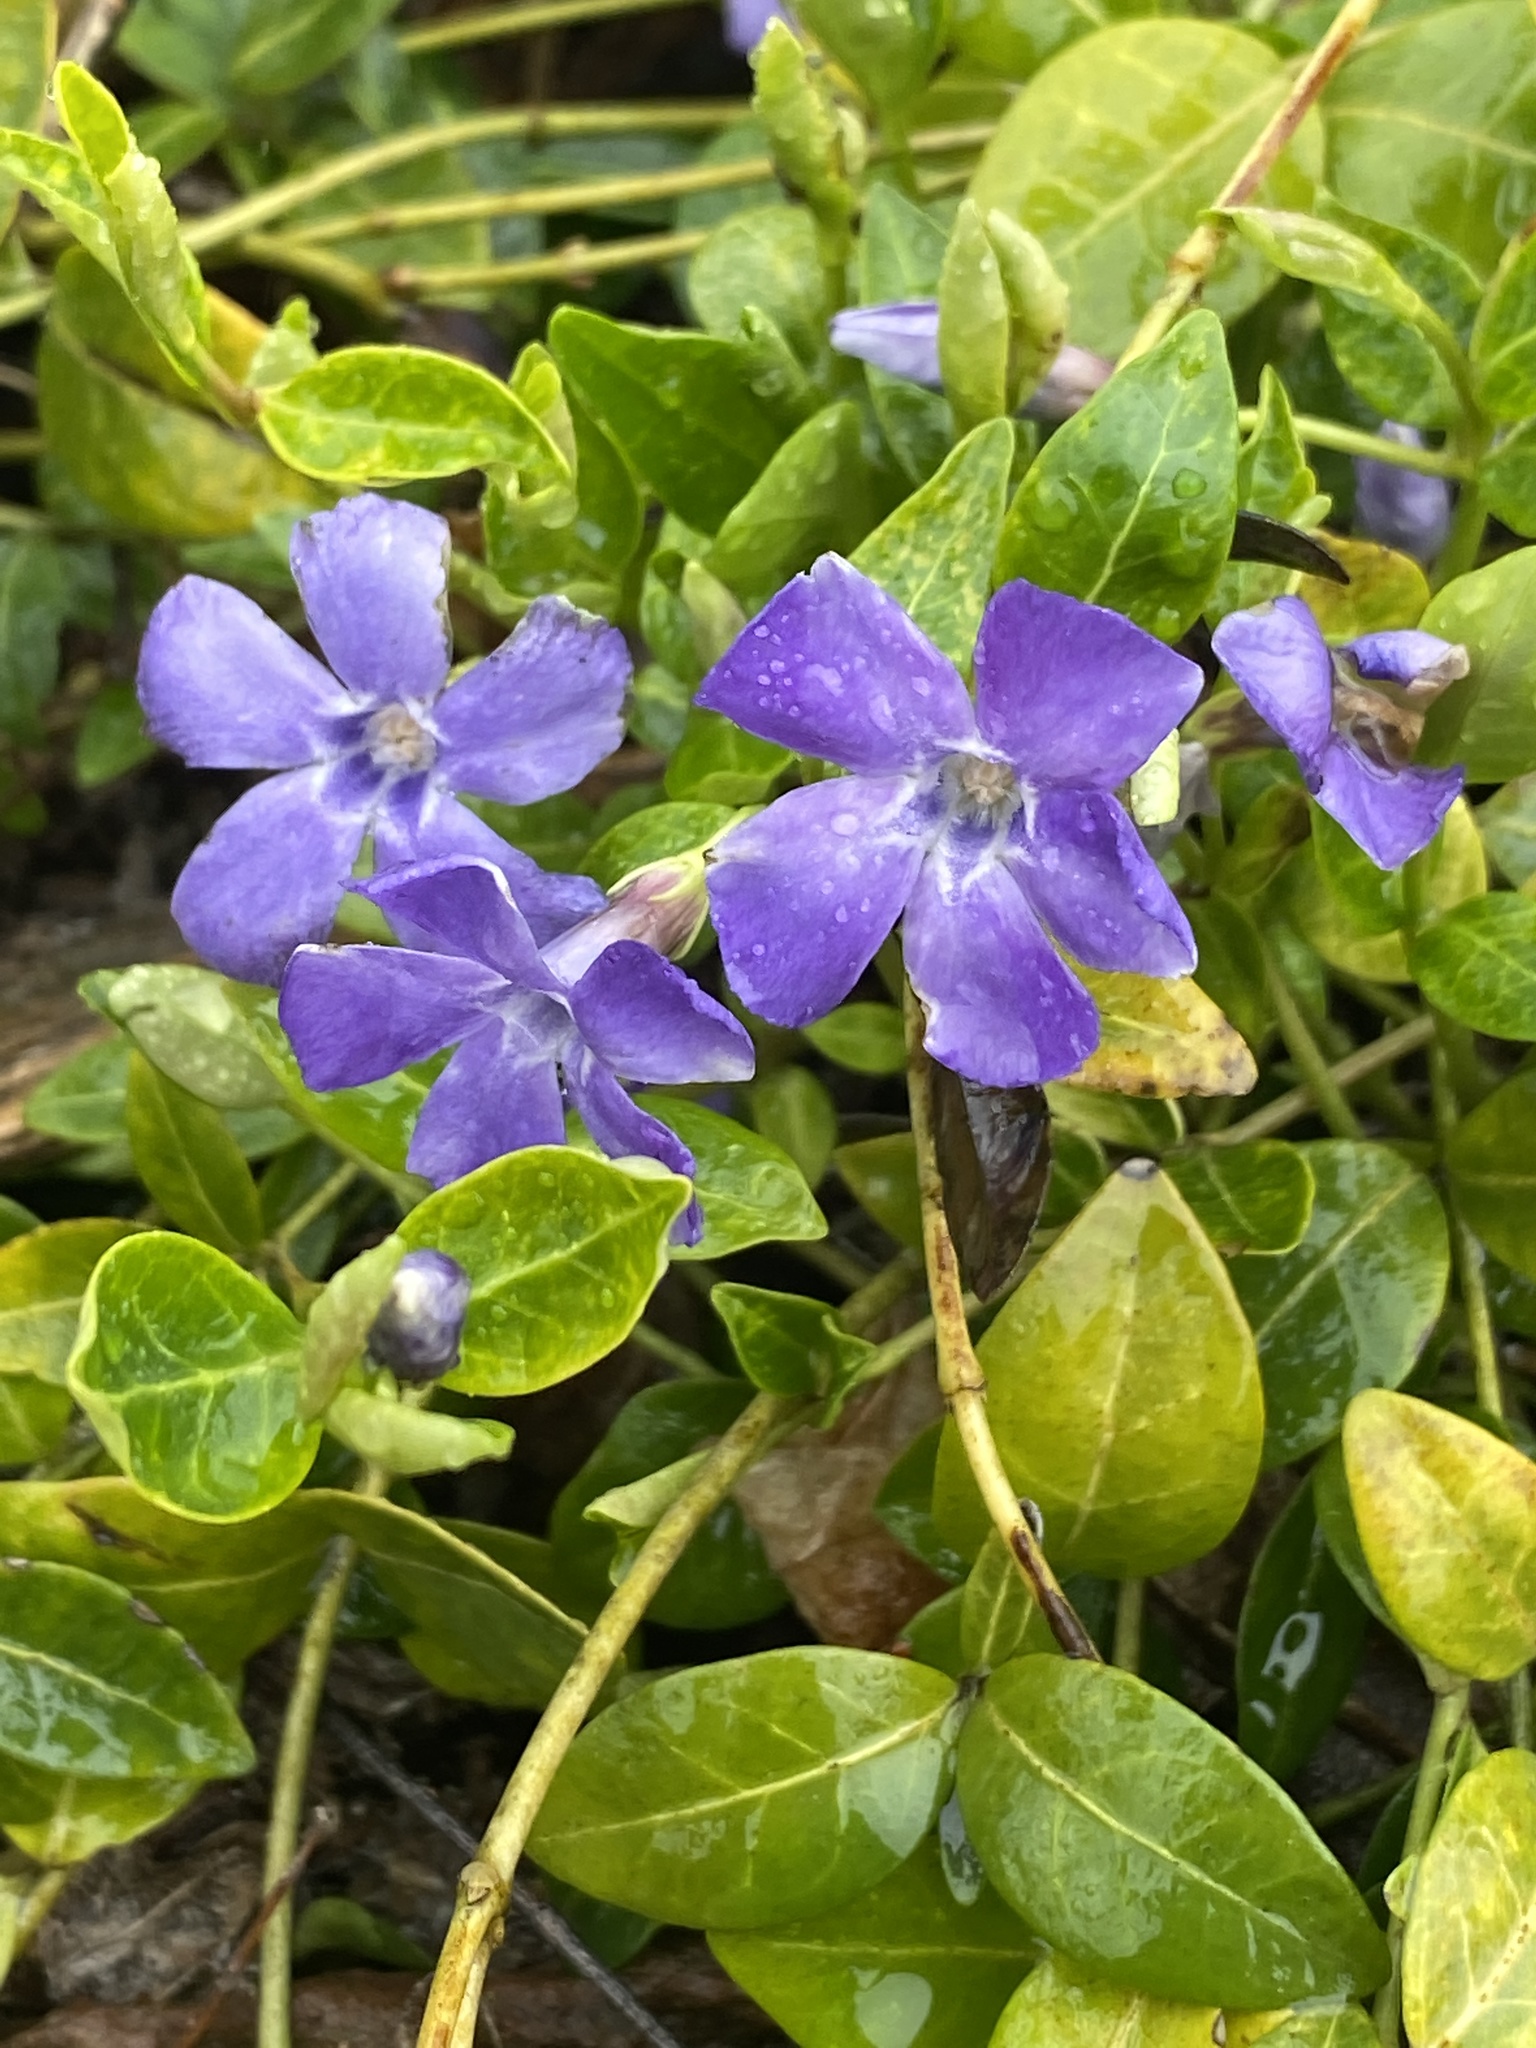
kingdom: Plantae
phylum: Tracheophyta
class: Magnoliopsida
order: Gentianales
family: Apocynaceae
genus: Vinca
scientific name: Vinca minor
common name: Lesser periwinkle
